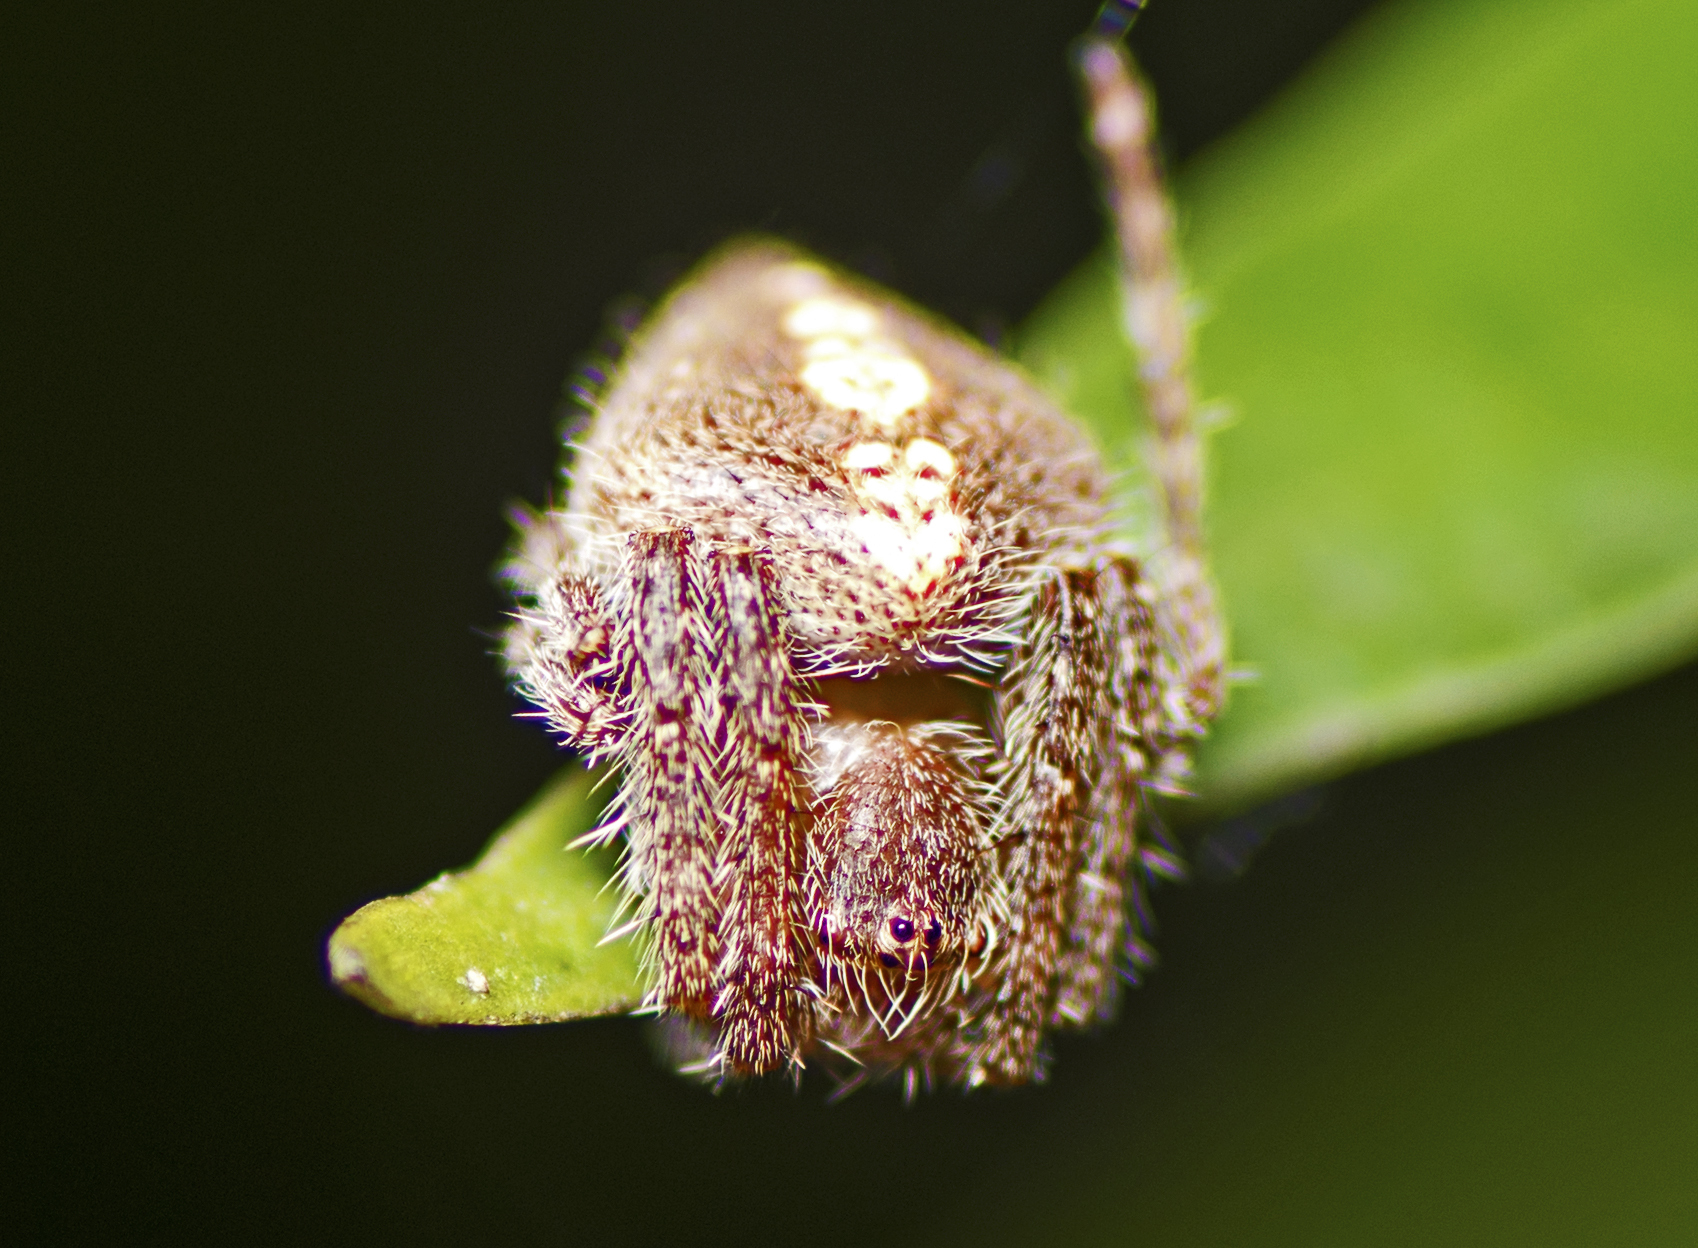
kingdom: Animalia
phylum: Arthropoda
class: Arachnida
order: Araneae
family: Araneidae
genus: Hortophora
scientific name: Hortophora transmarina
